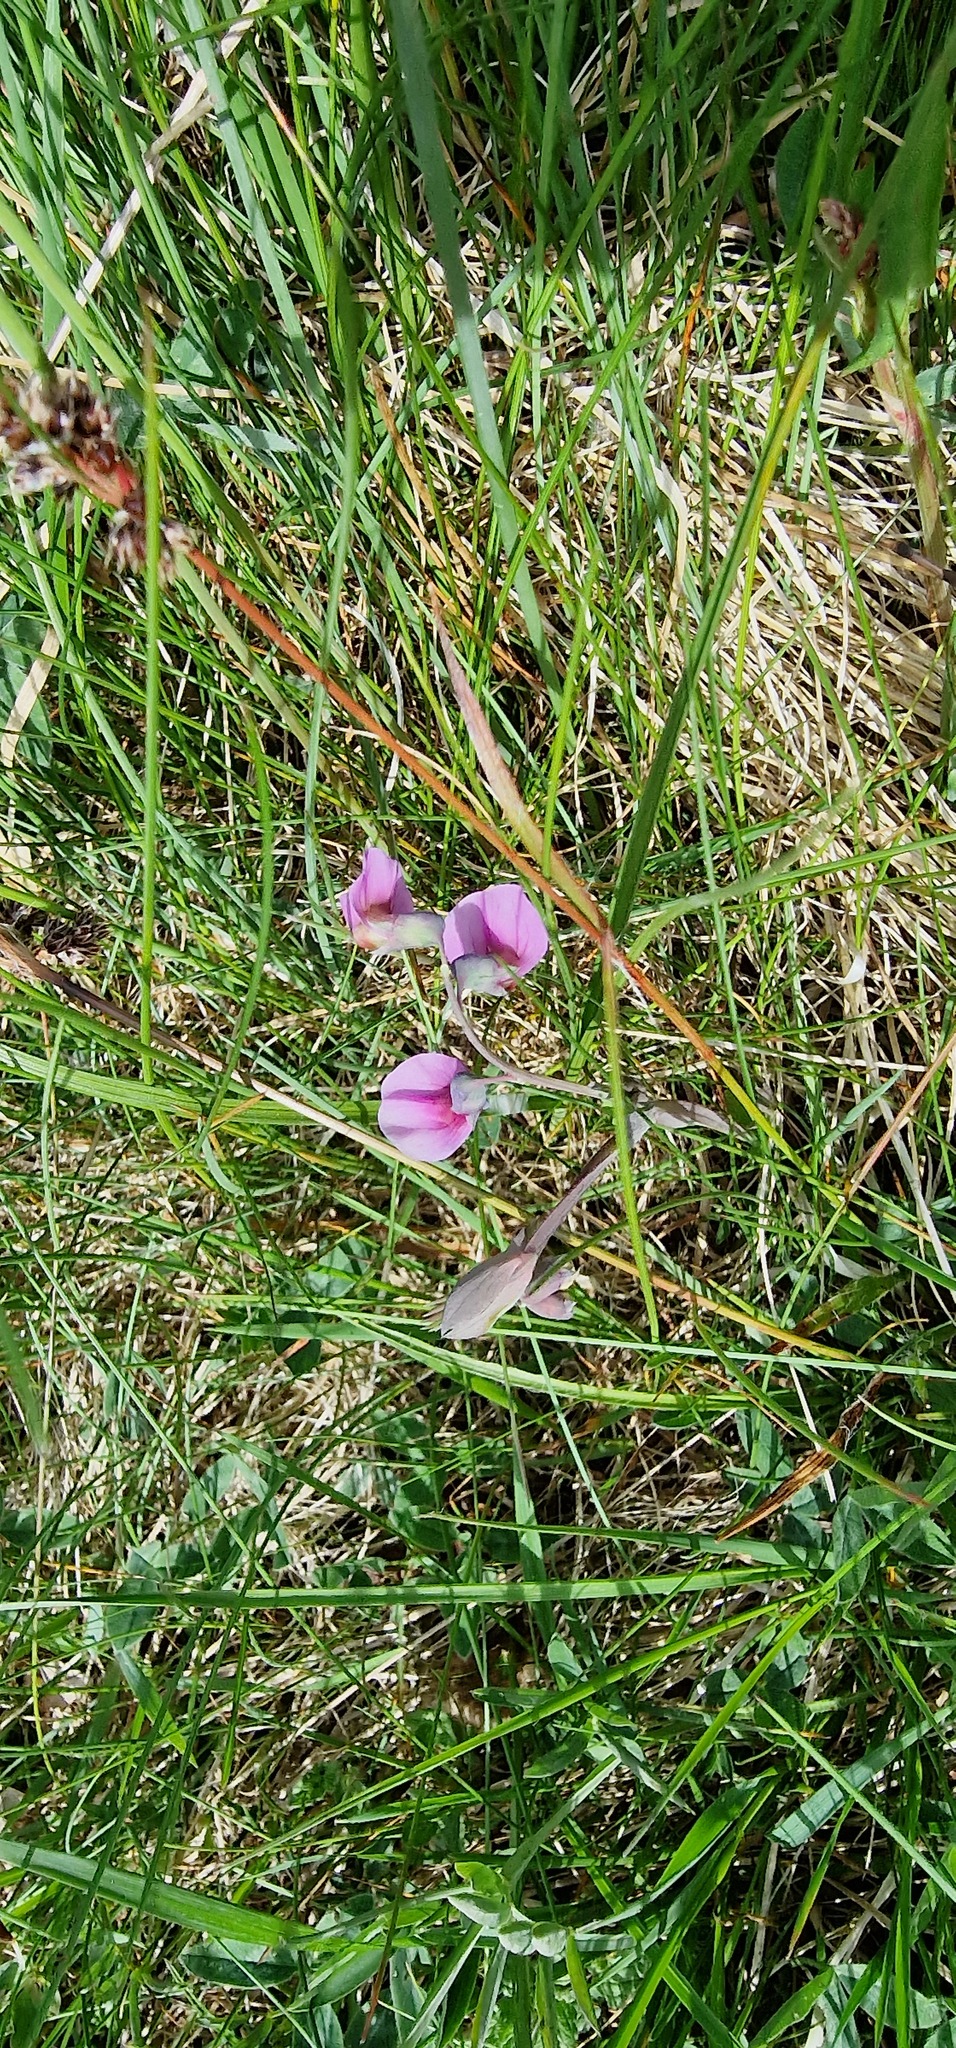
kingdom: Plantae
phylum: Tracheophyta
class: Magnoliopsida
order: Fabales
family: Fabaceae
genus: Lathyrus
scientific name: Lathyrus linifolius
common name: Bitter-vetch
